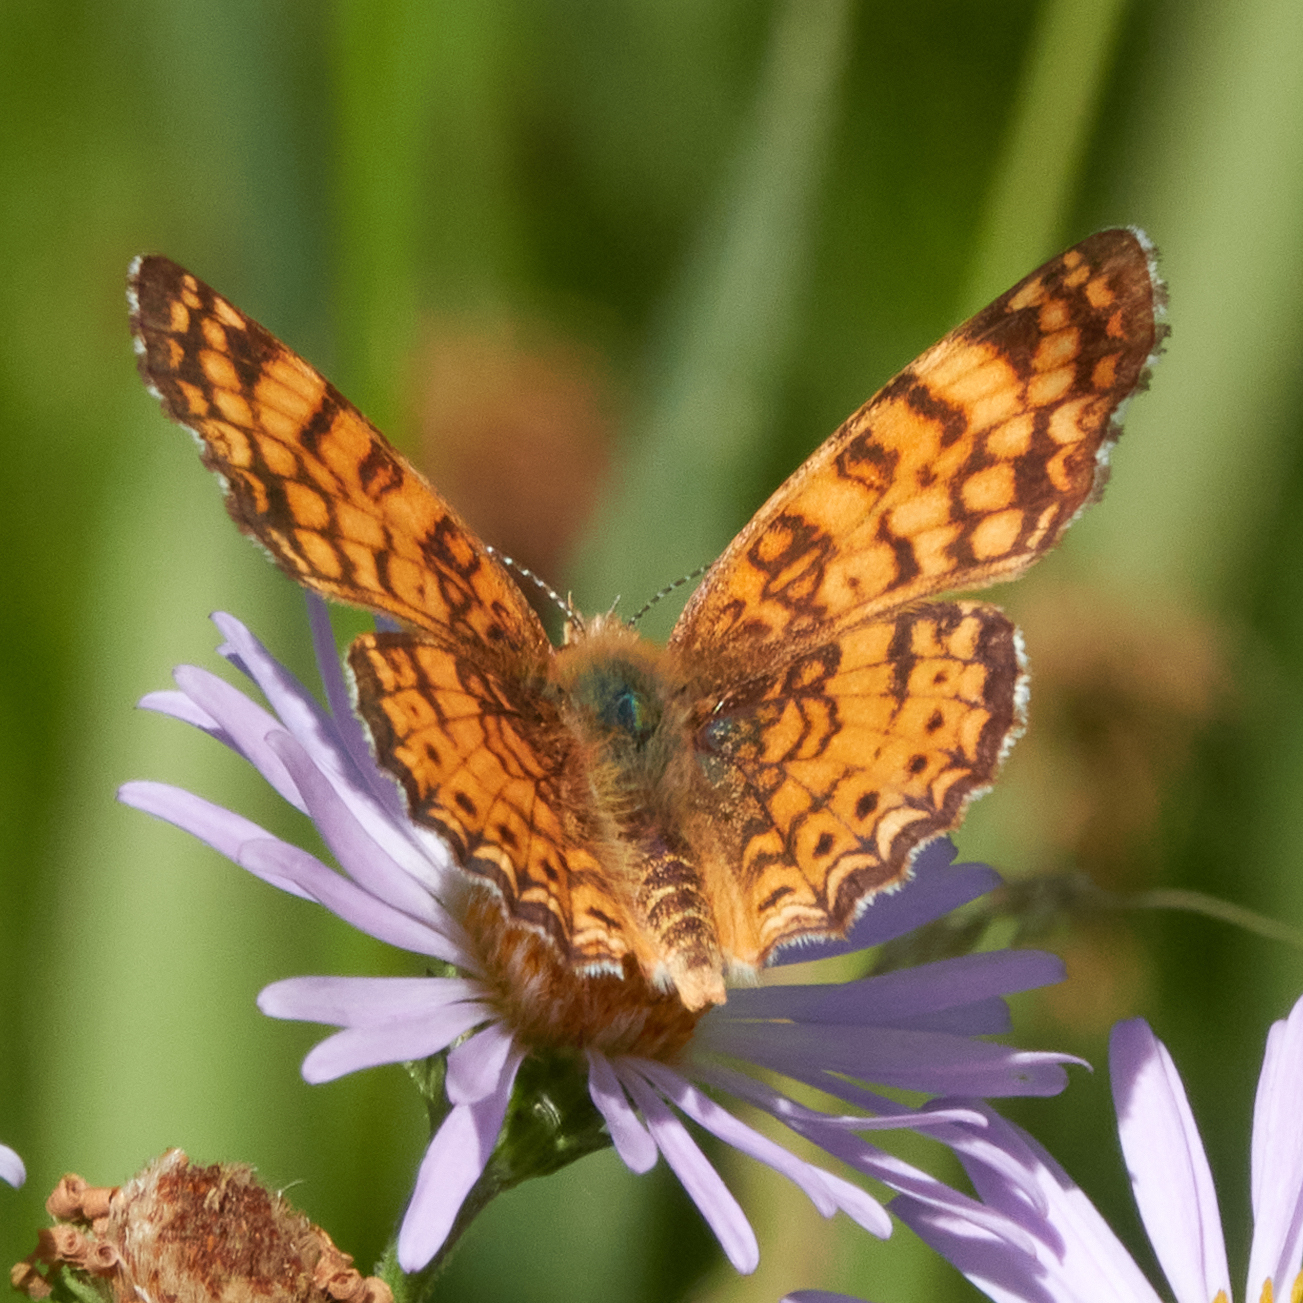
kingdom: Animalia
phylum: Arthropoda
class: Insecta
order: Lepidoptera
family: Nymphalidae
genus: Eresia
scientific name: Eresia aveyrona
